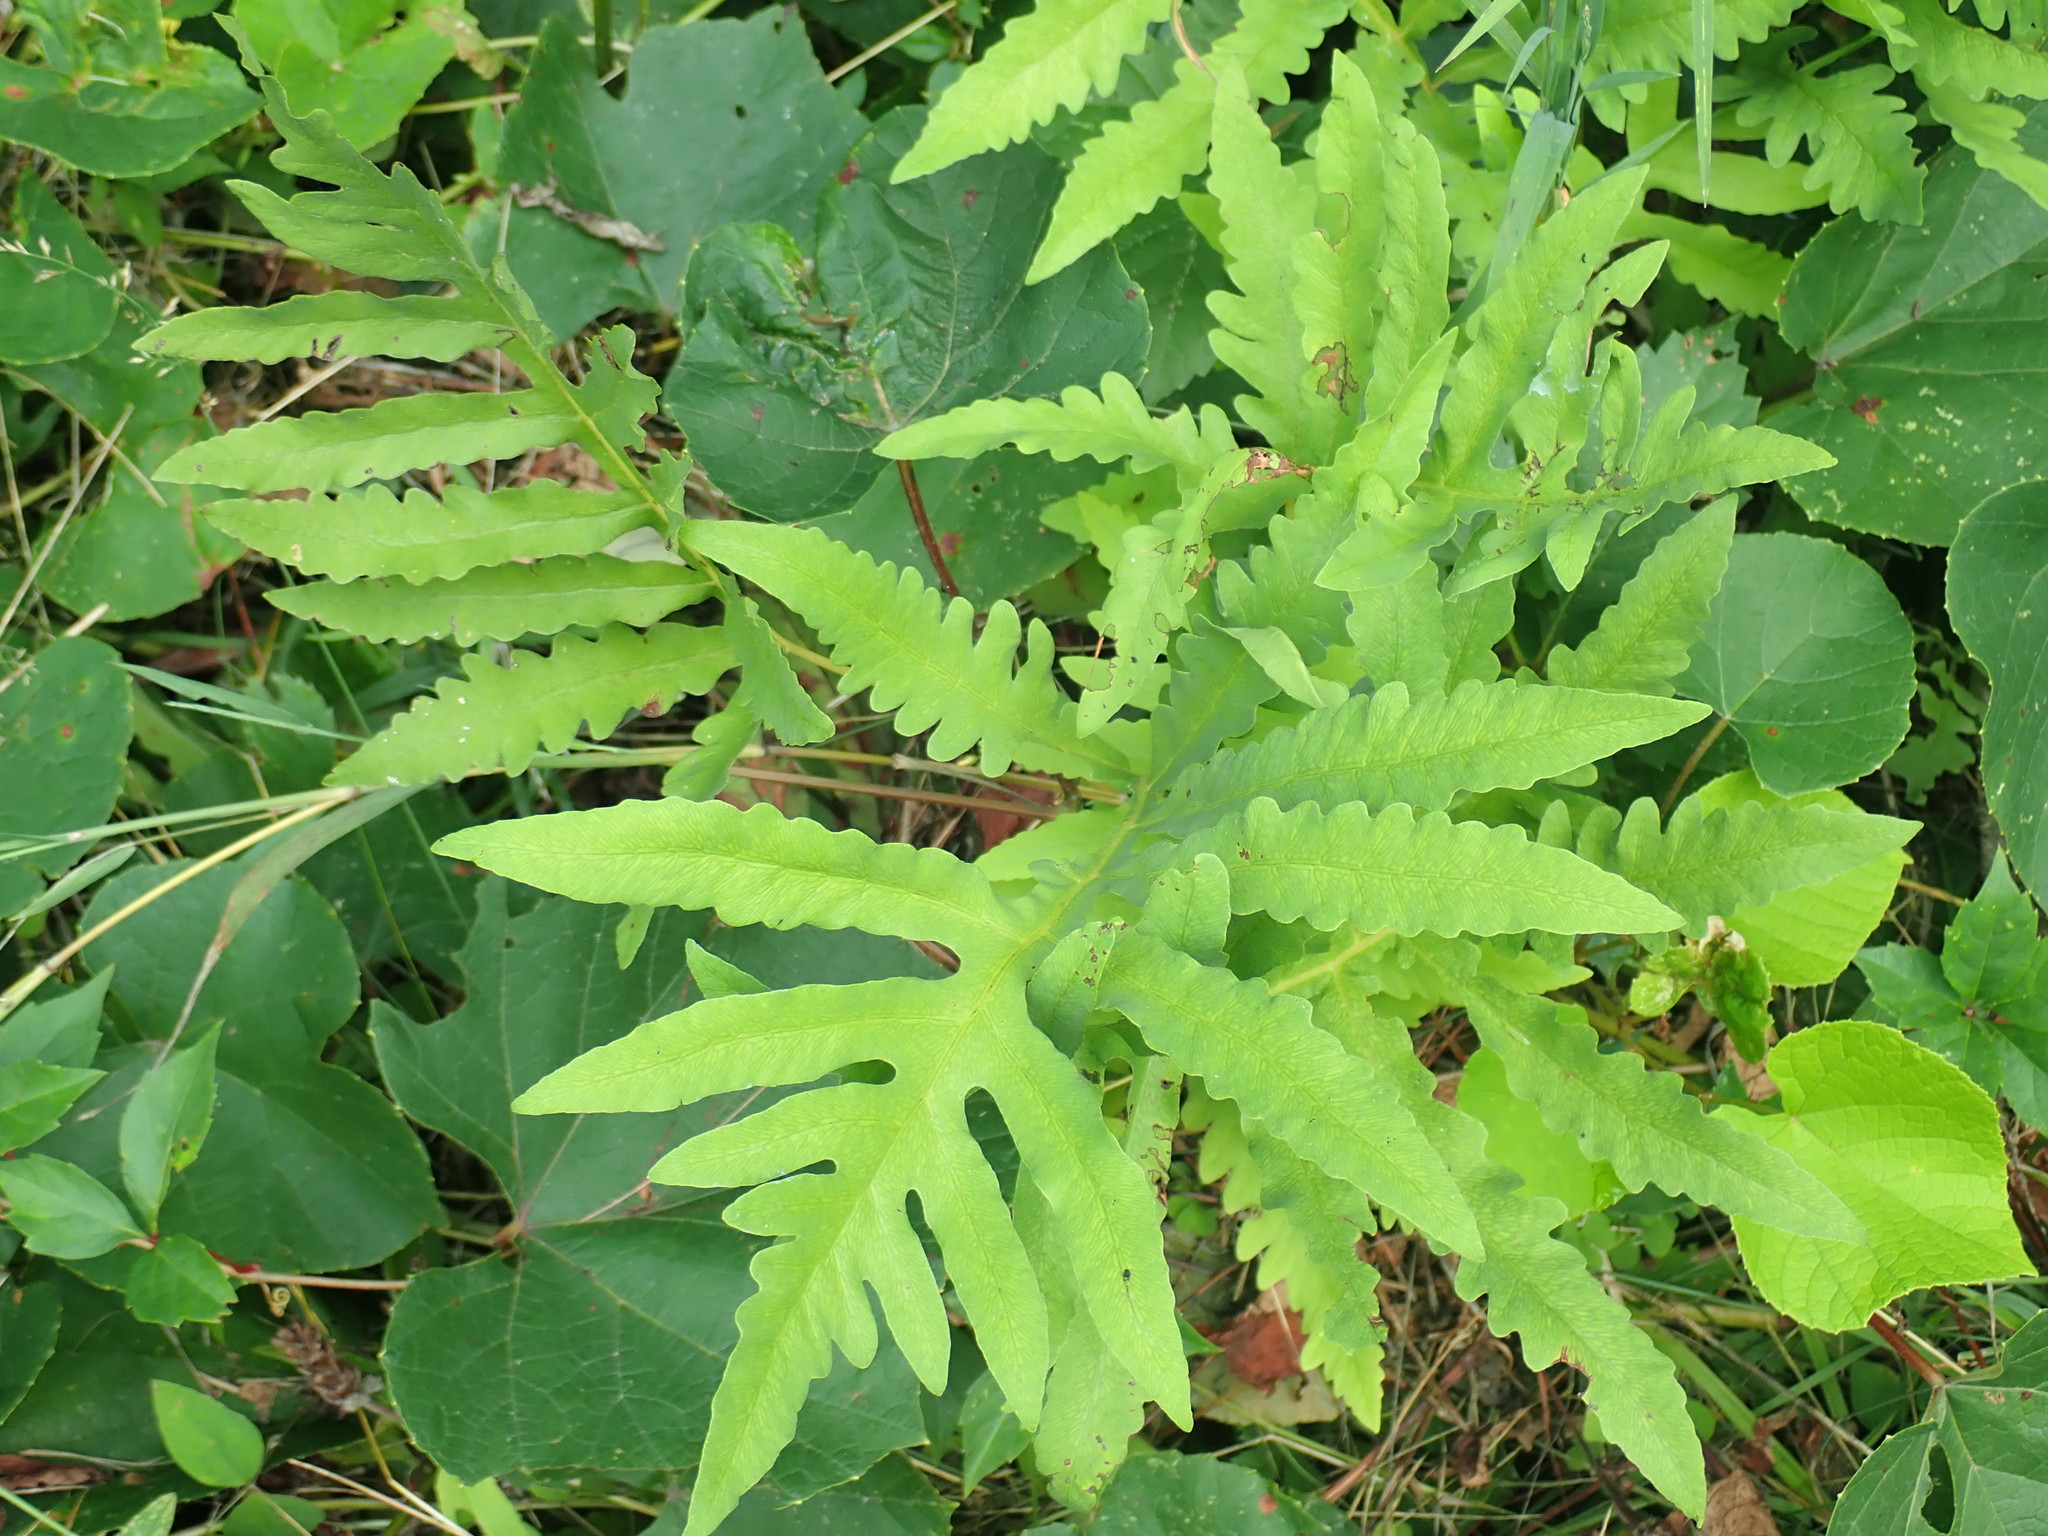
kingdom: Plantae
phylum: Tracheophyta
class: Polypodiopsida
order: Polypodiales
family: Onocleaceae
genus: Onoclea
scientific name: Onoclea sensibilis
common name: Sensitive fern
